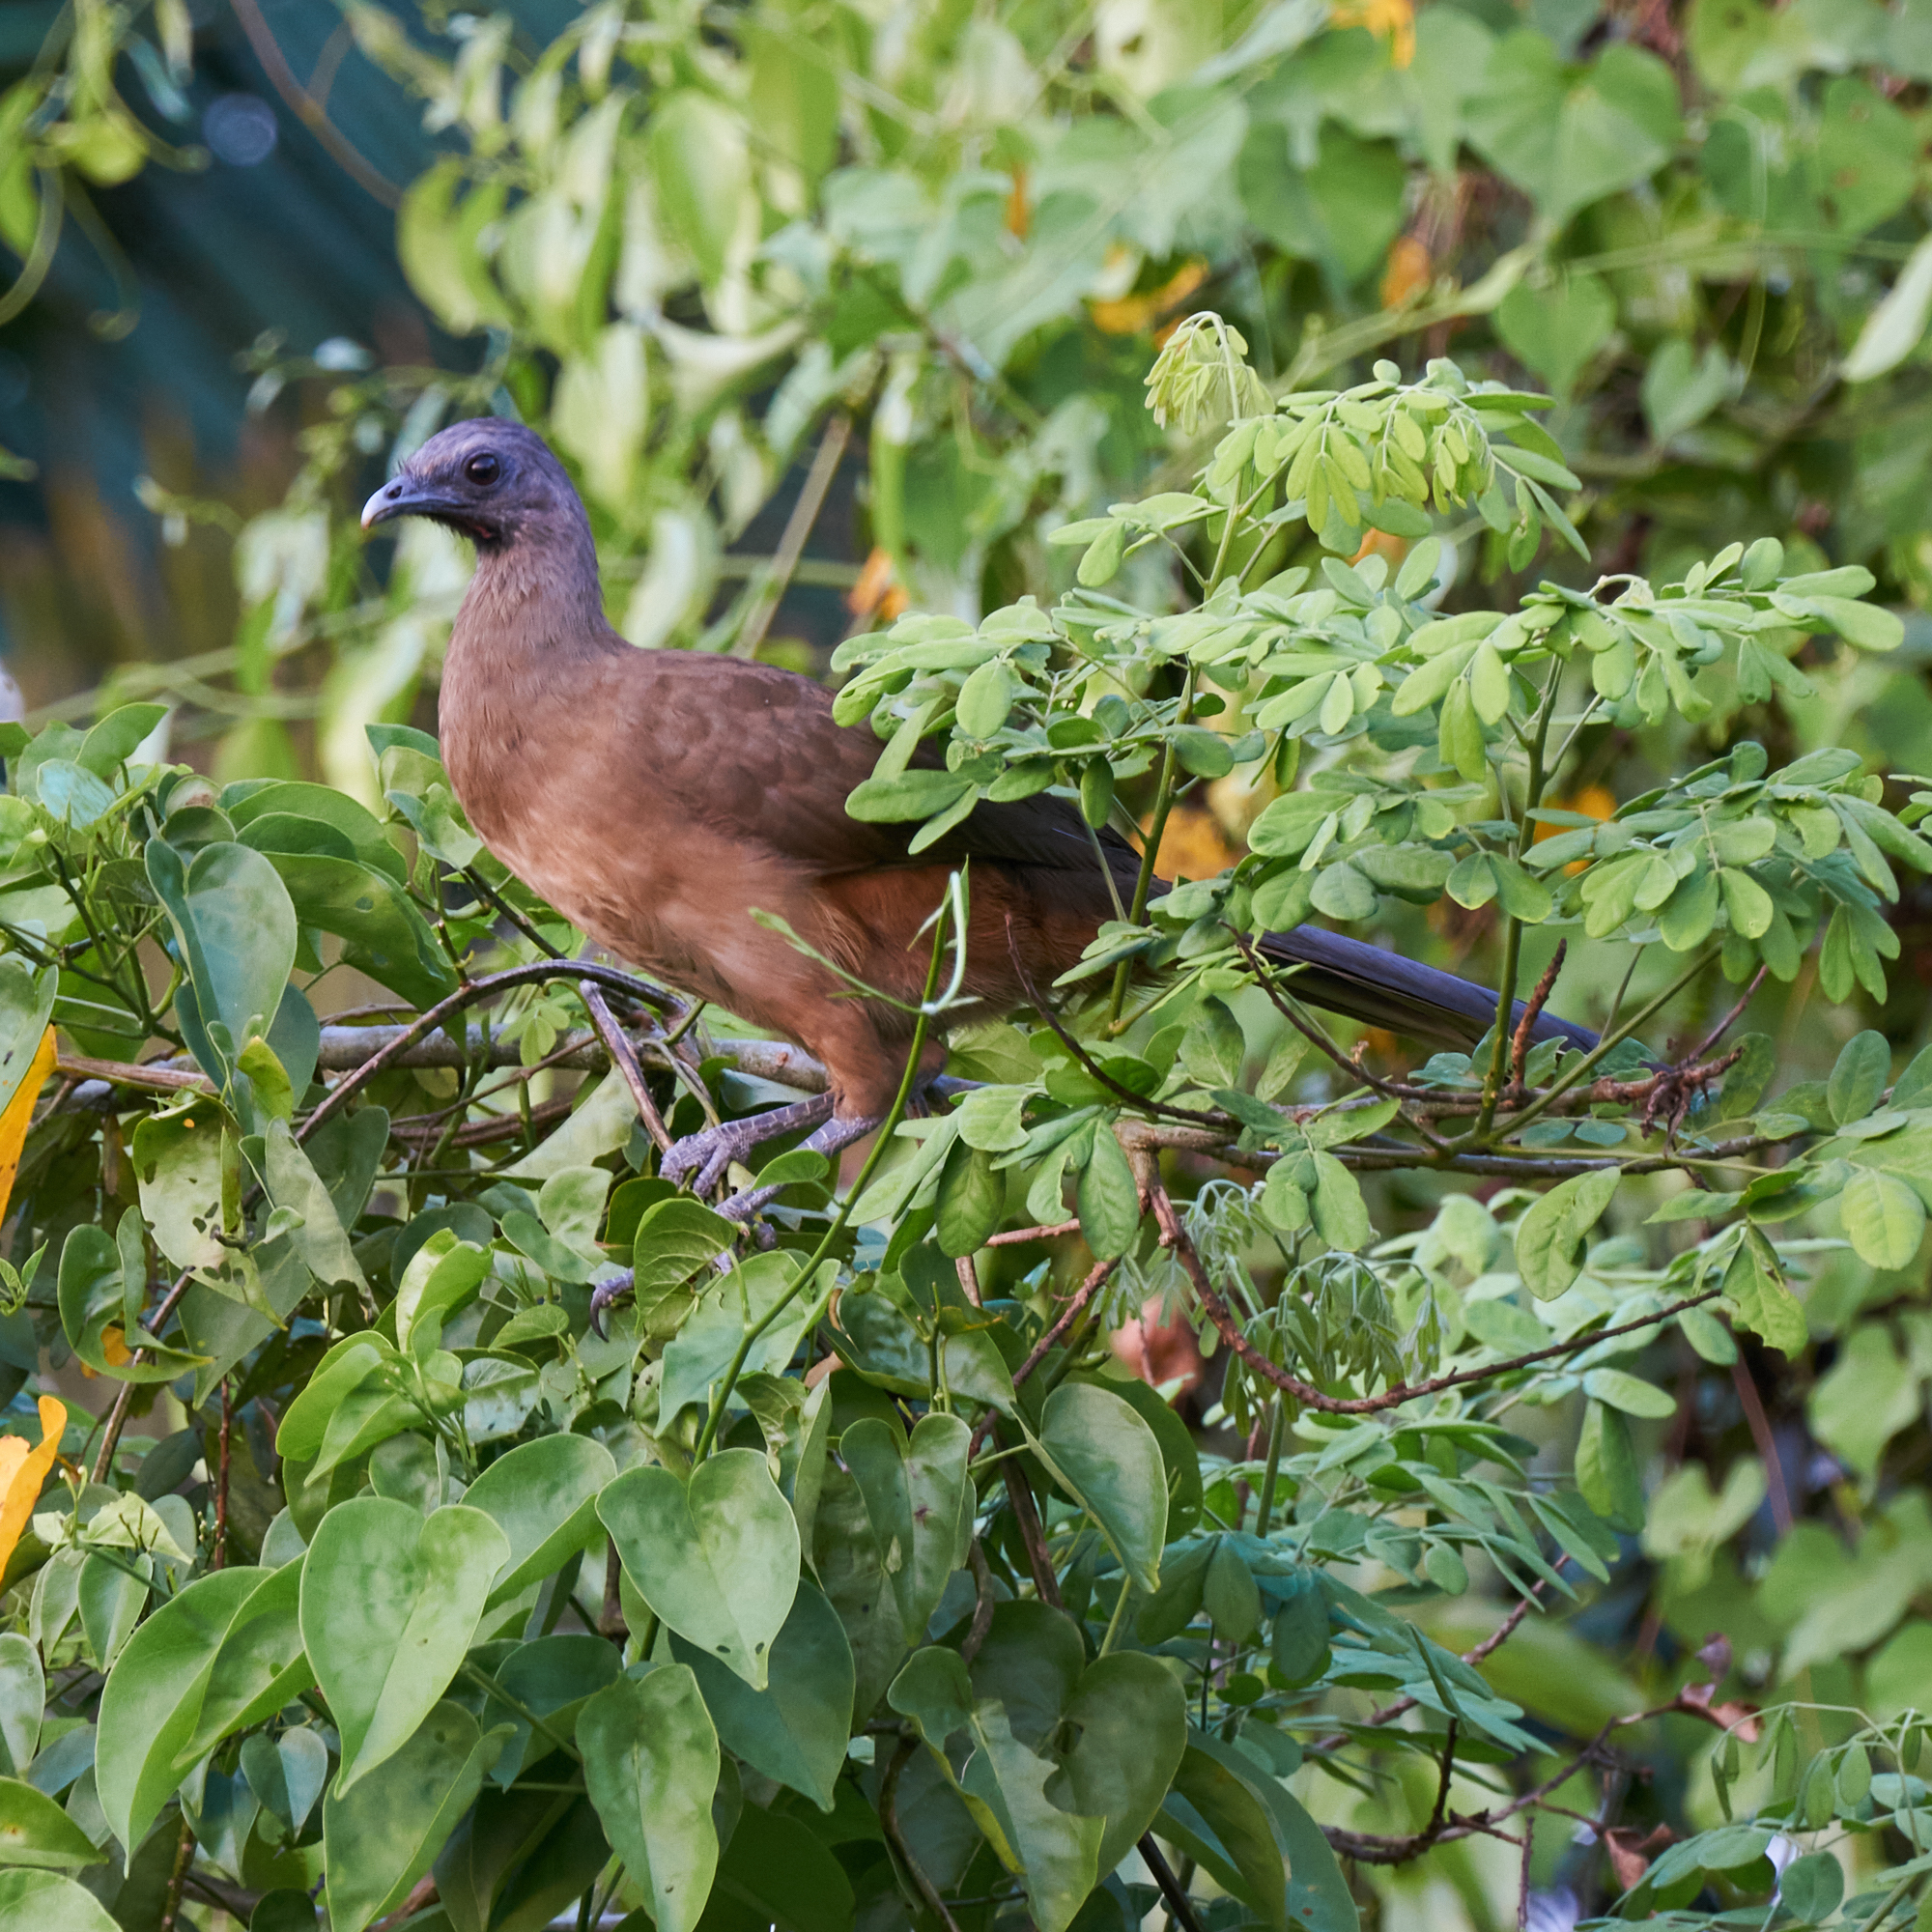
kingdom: Animalia
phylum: Chordata
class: Aves
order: Galliformes
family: Cracidae
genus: Ortalis
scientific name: Ortalis vetula
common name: Plain chachalaca
